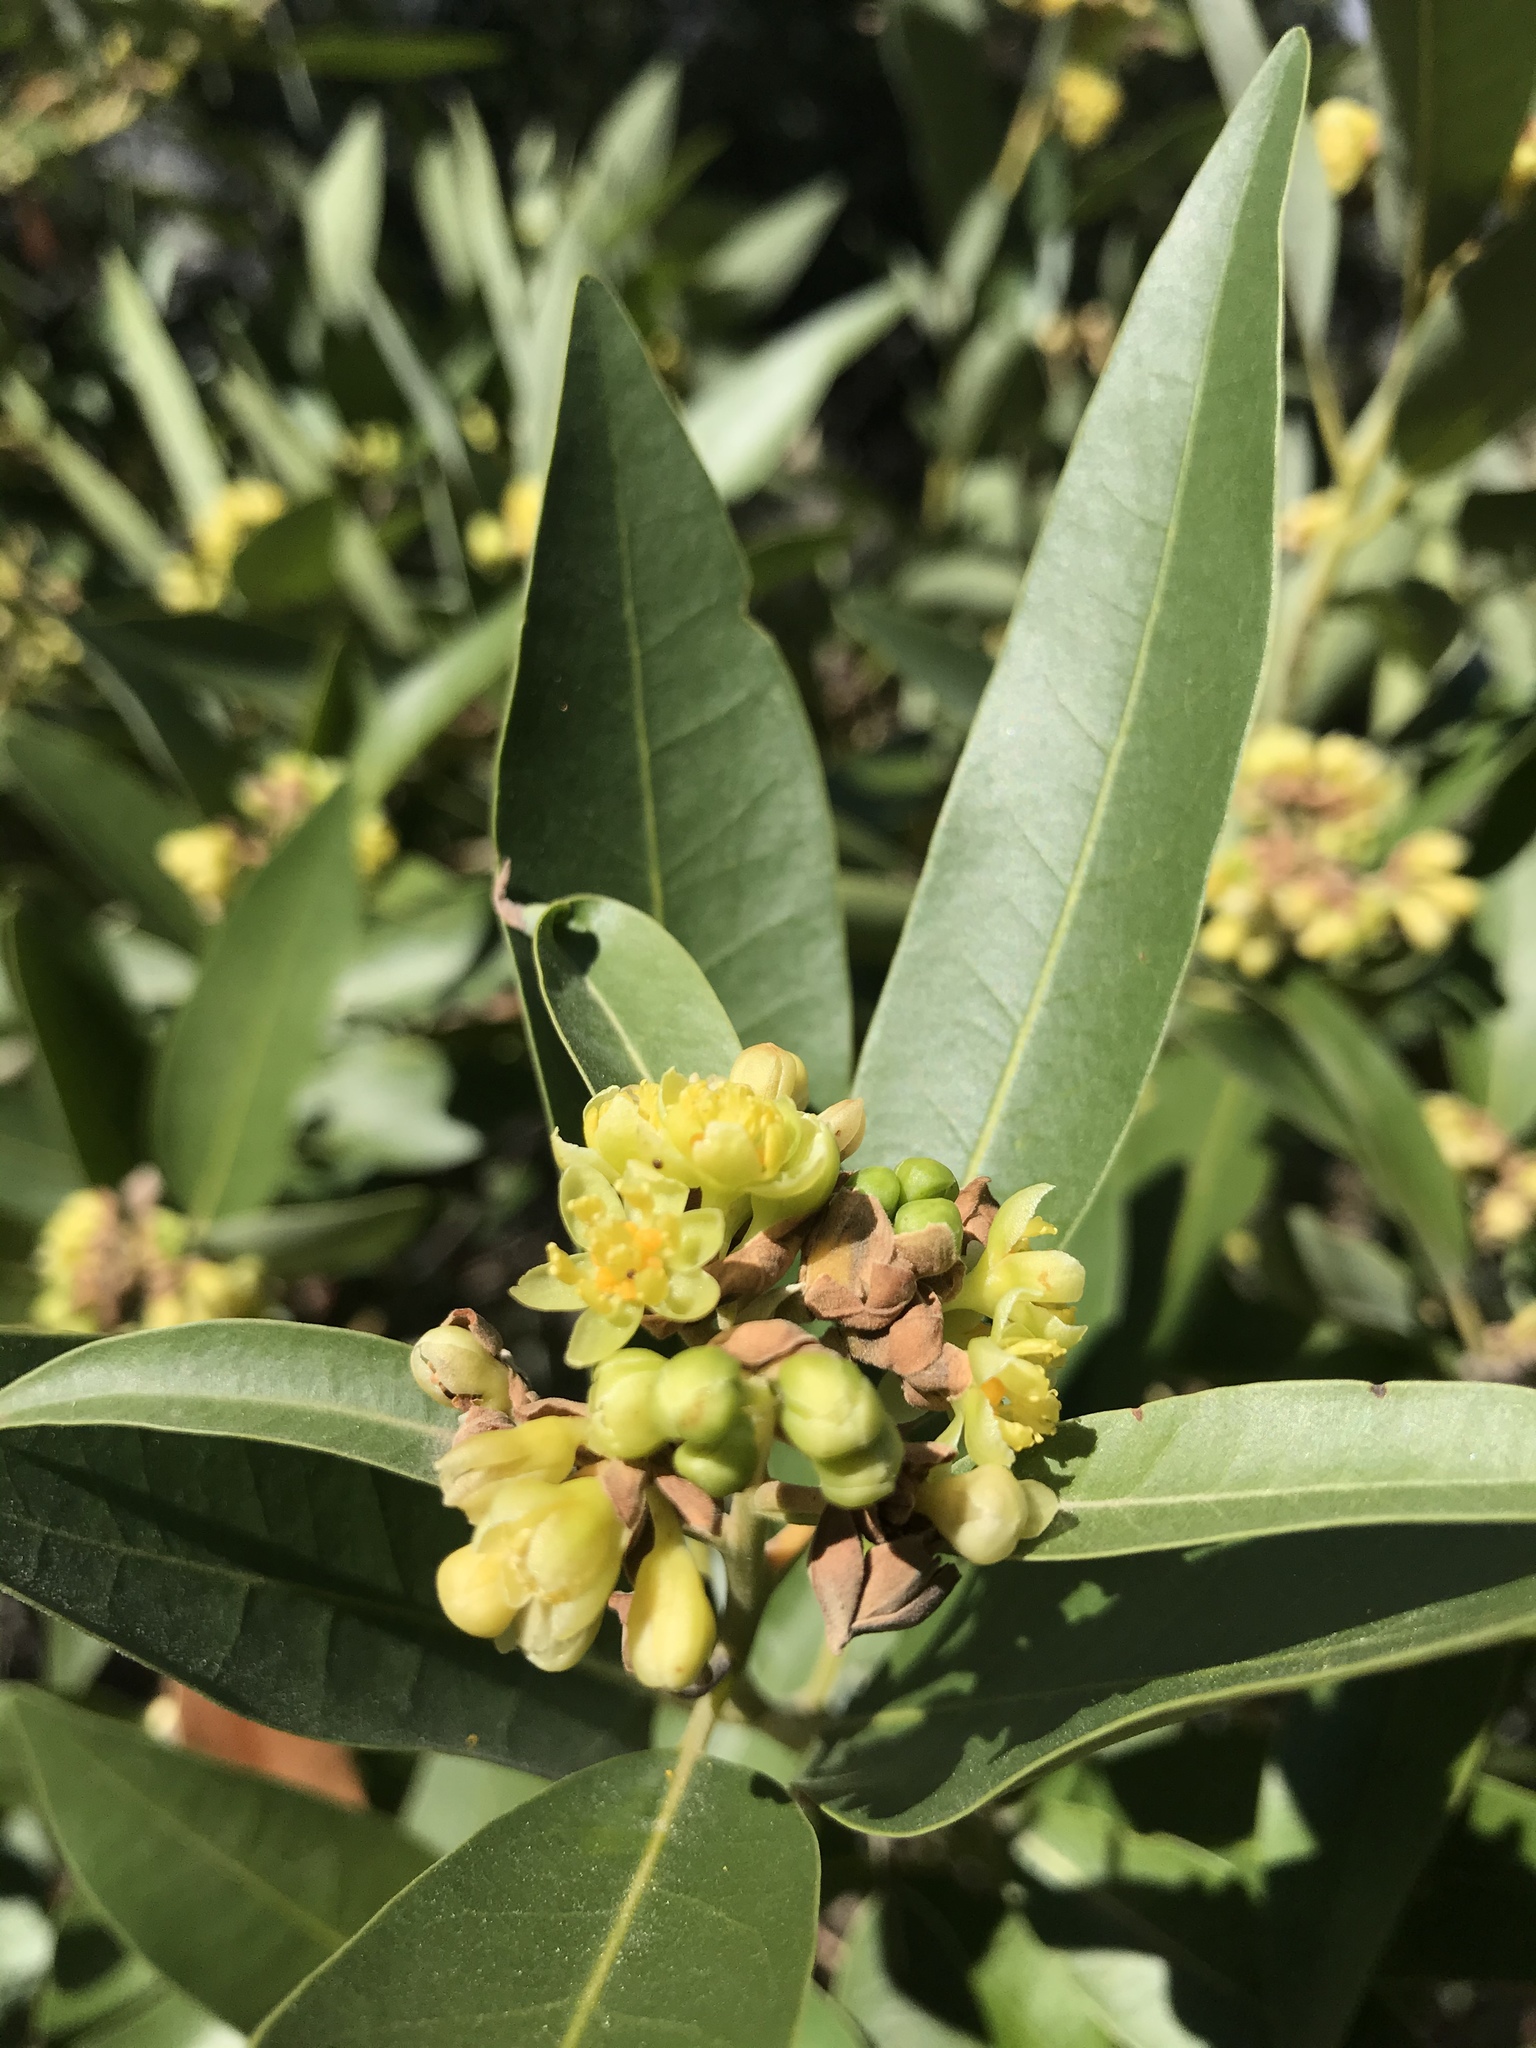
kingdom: Plantae
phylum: Tracheophyta
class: Magnoliopsida
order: Laurales
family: Lauraceae
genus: Umbellularia
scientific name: Umbellularia californica
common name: California bay
